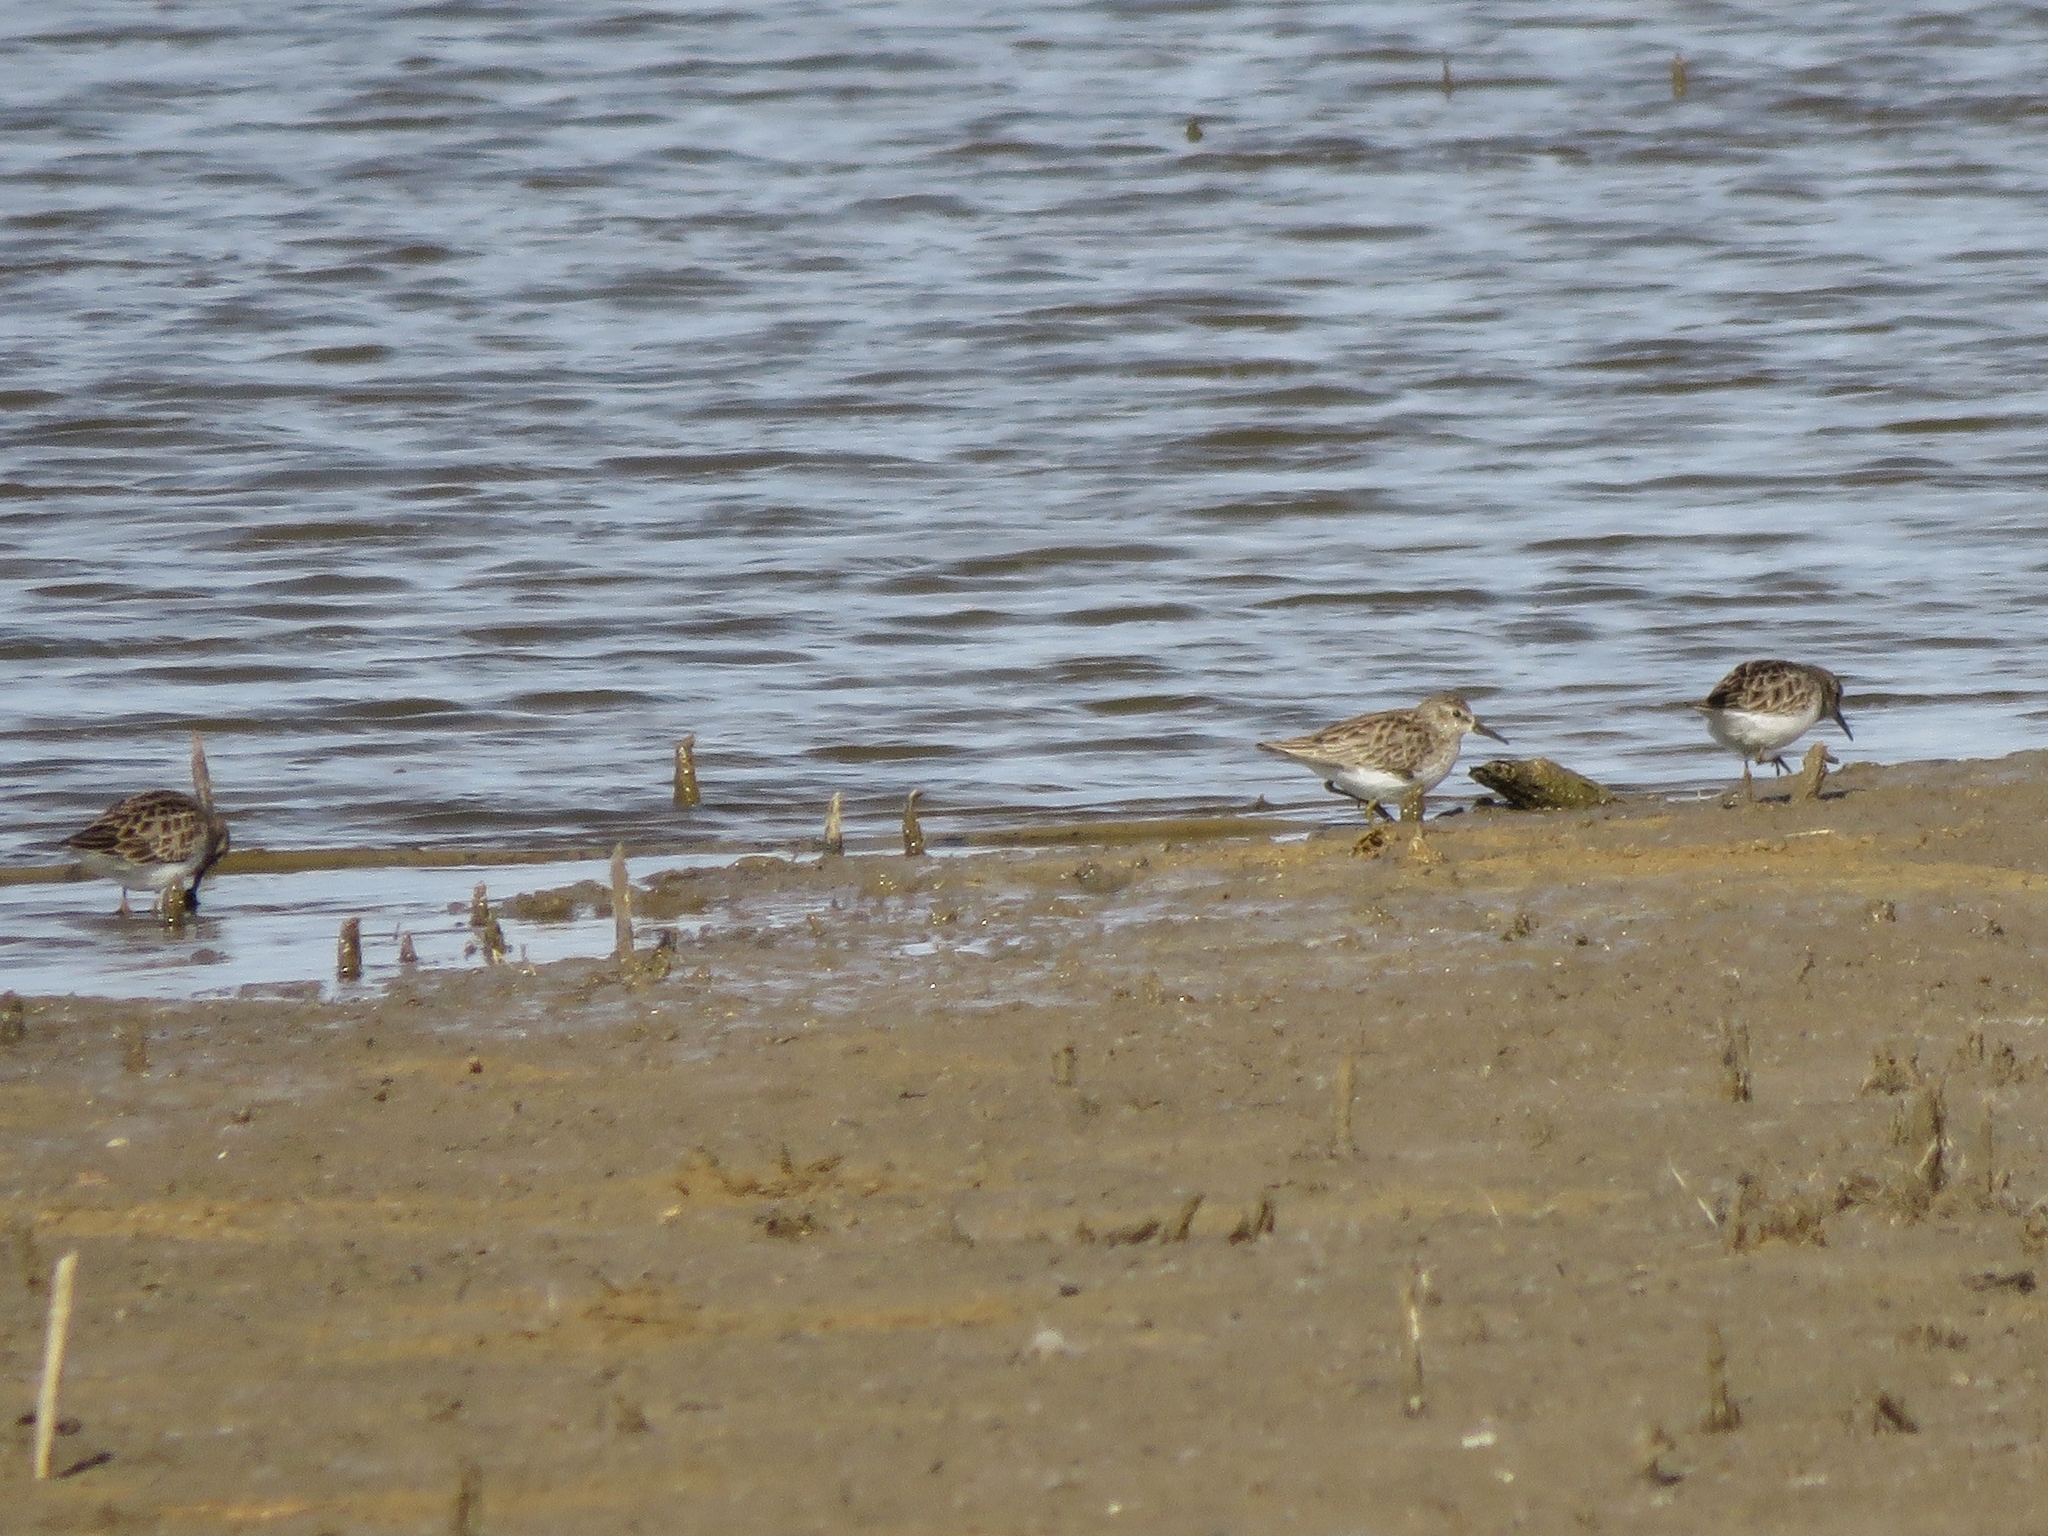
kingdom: Animalia
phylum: Chordata
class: Aves
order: Charadriiformes
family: Scolopacidae
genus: Calidris
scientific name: Calidris minutilla
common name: Least sandpiper
